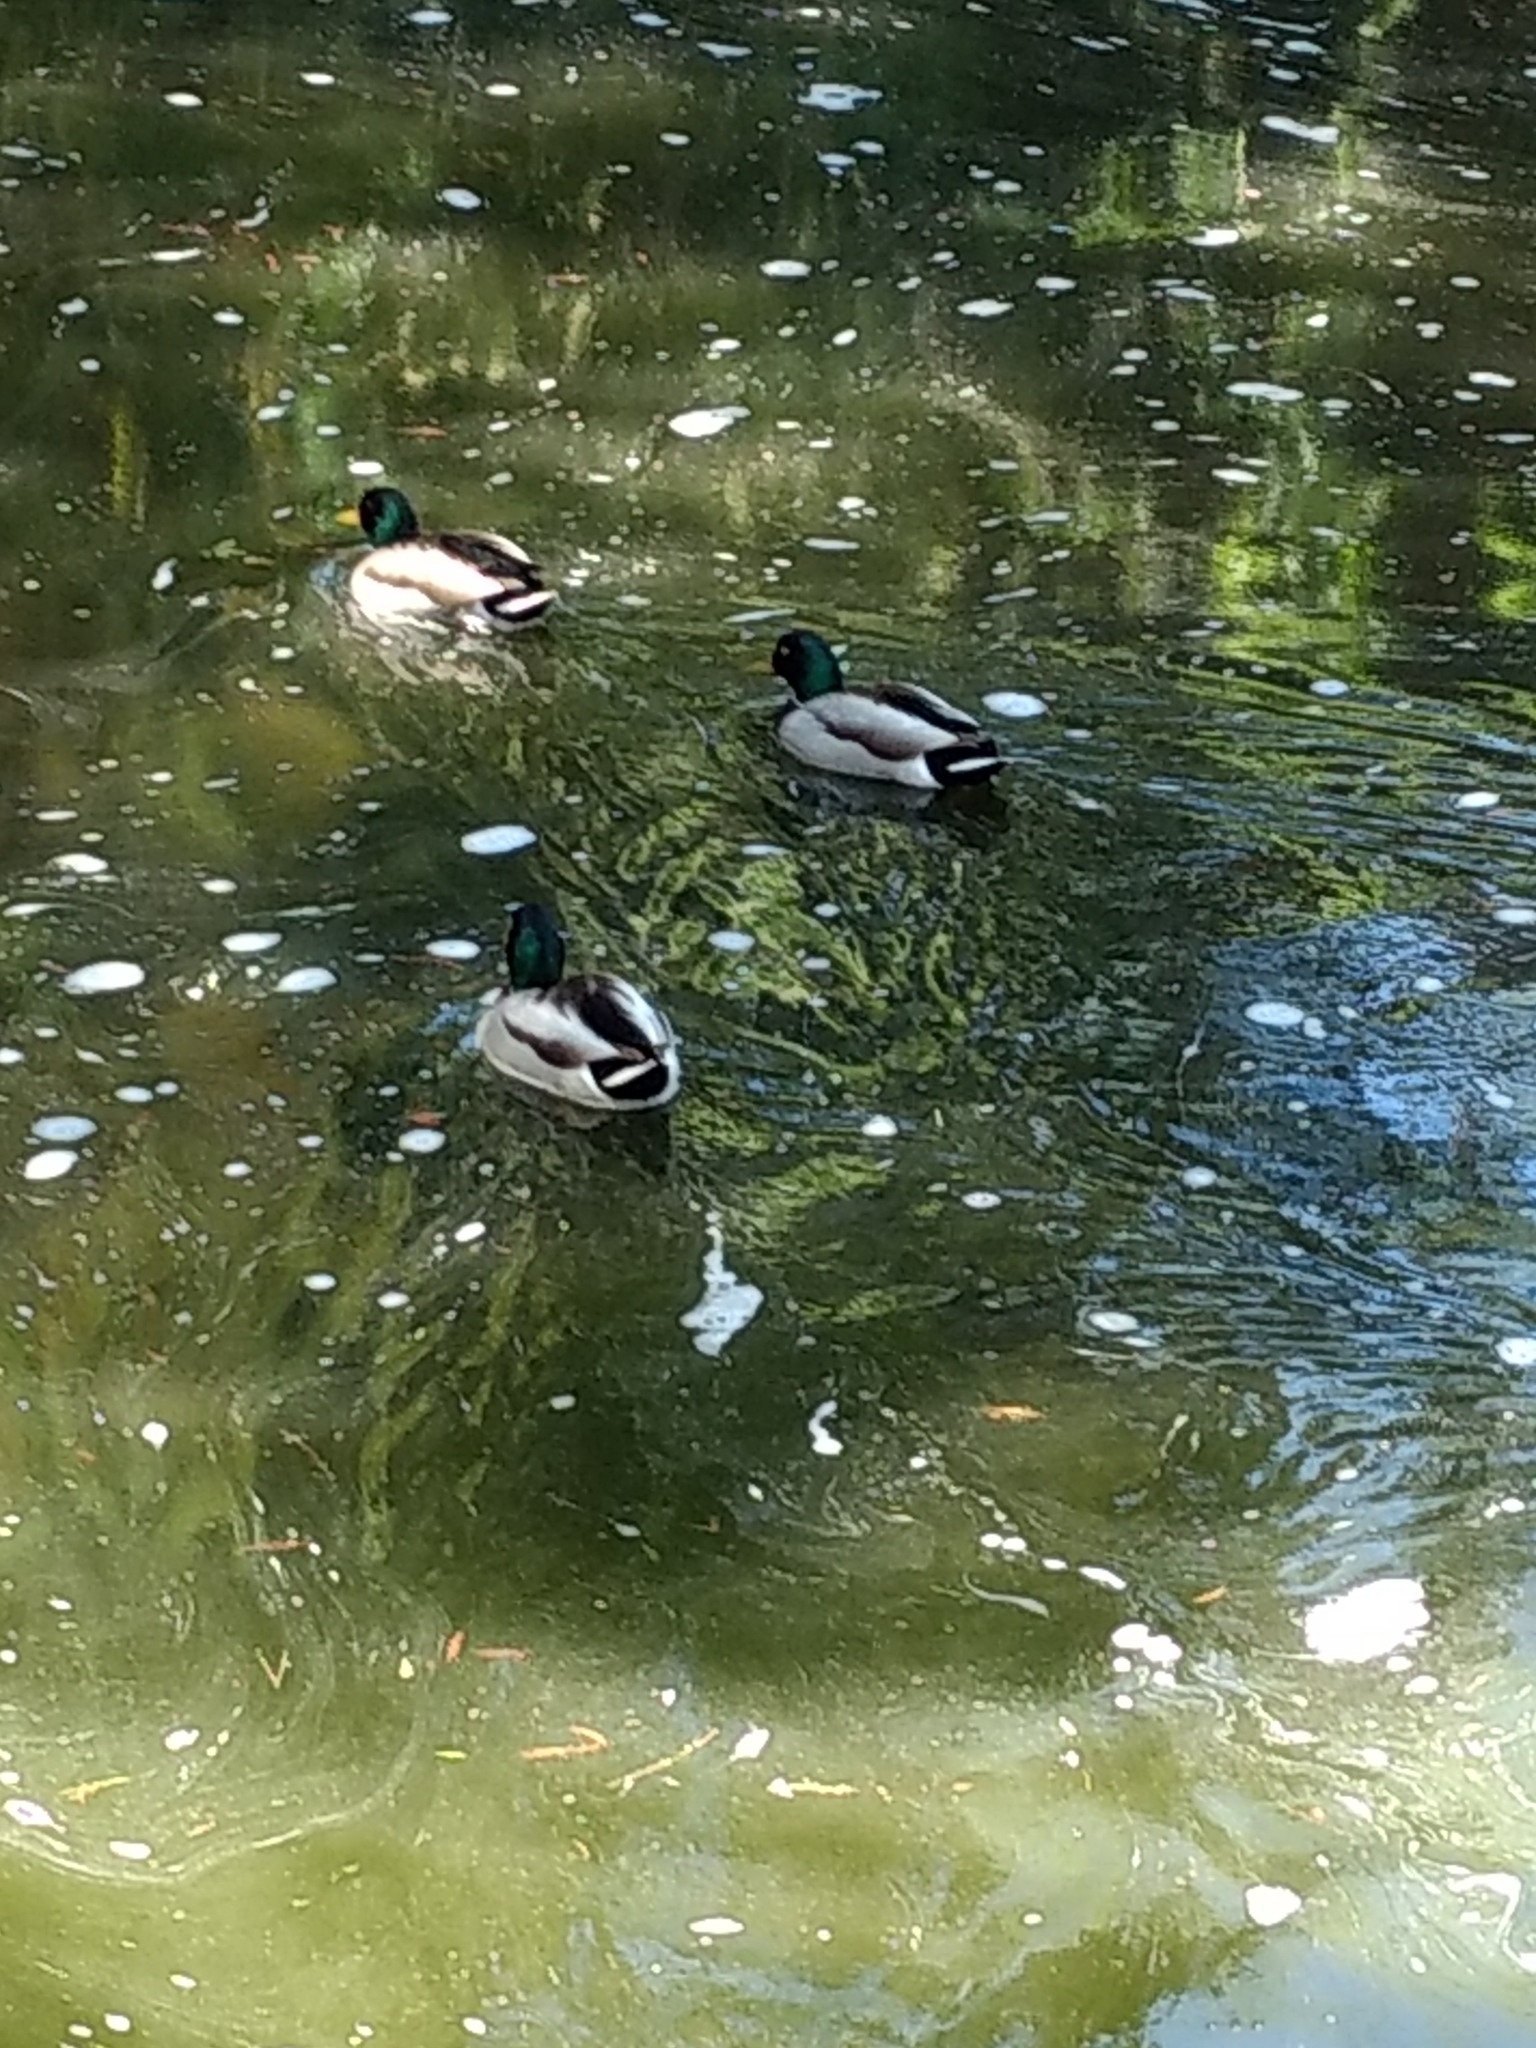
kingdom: Animalia
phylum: Chordata
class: Aves
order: Anseriformes
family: Anatidae
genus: Anas
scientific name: Anas platyrhynchos
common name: Mallard
